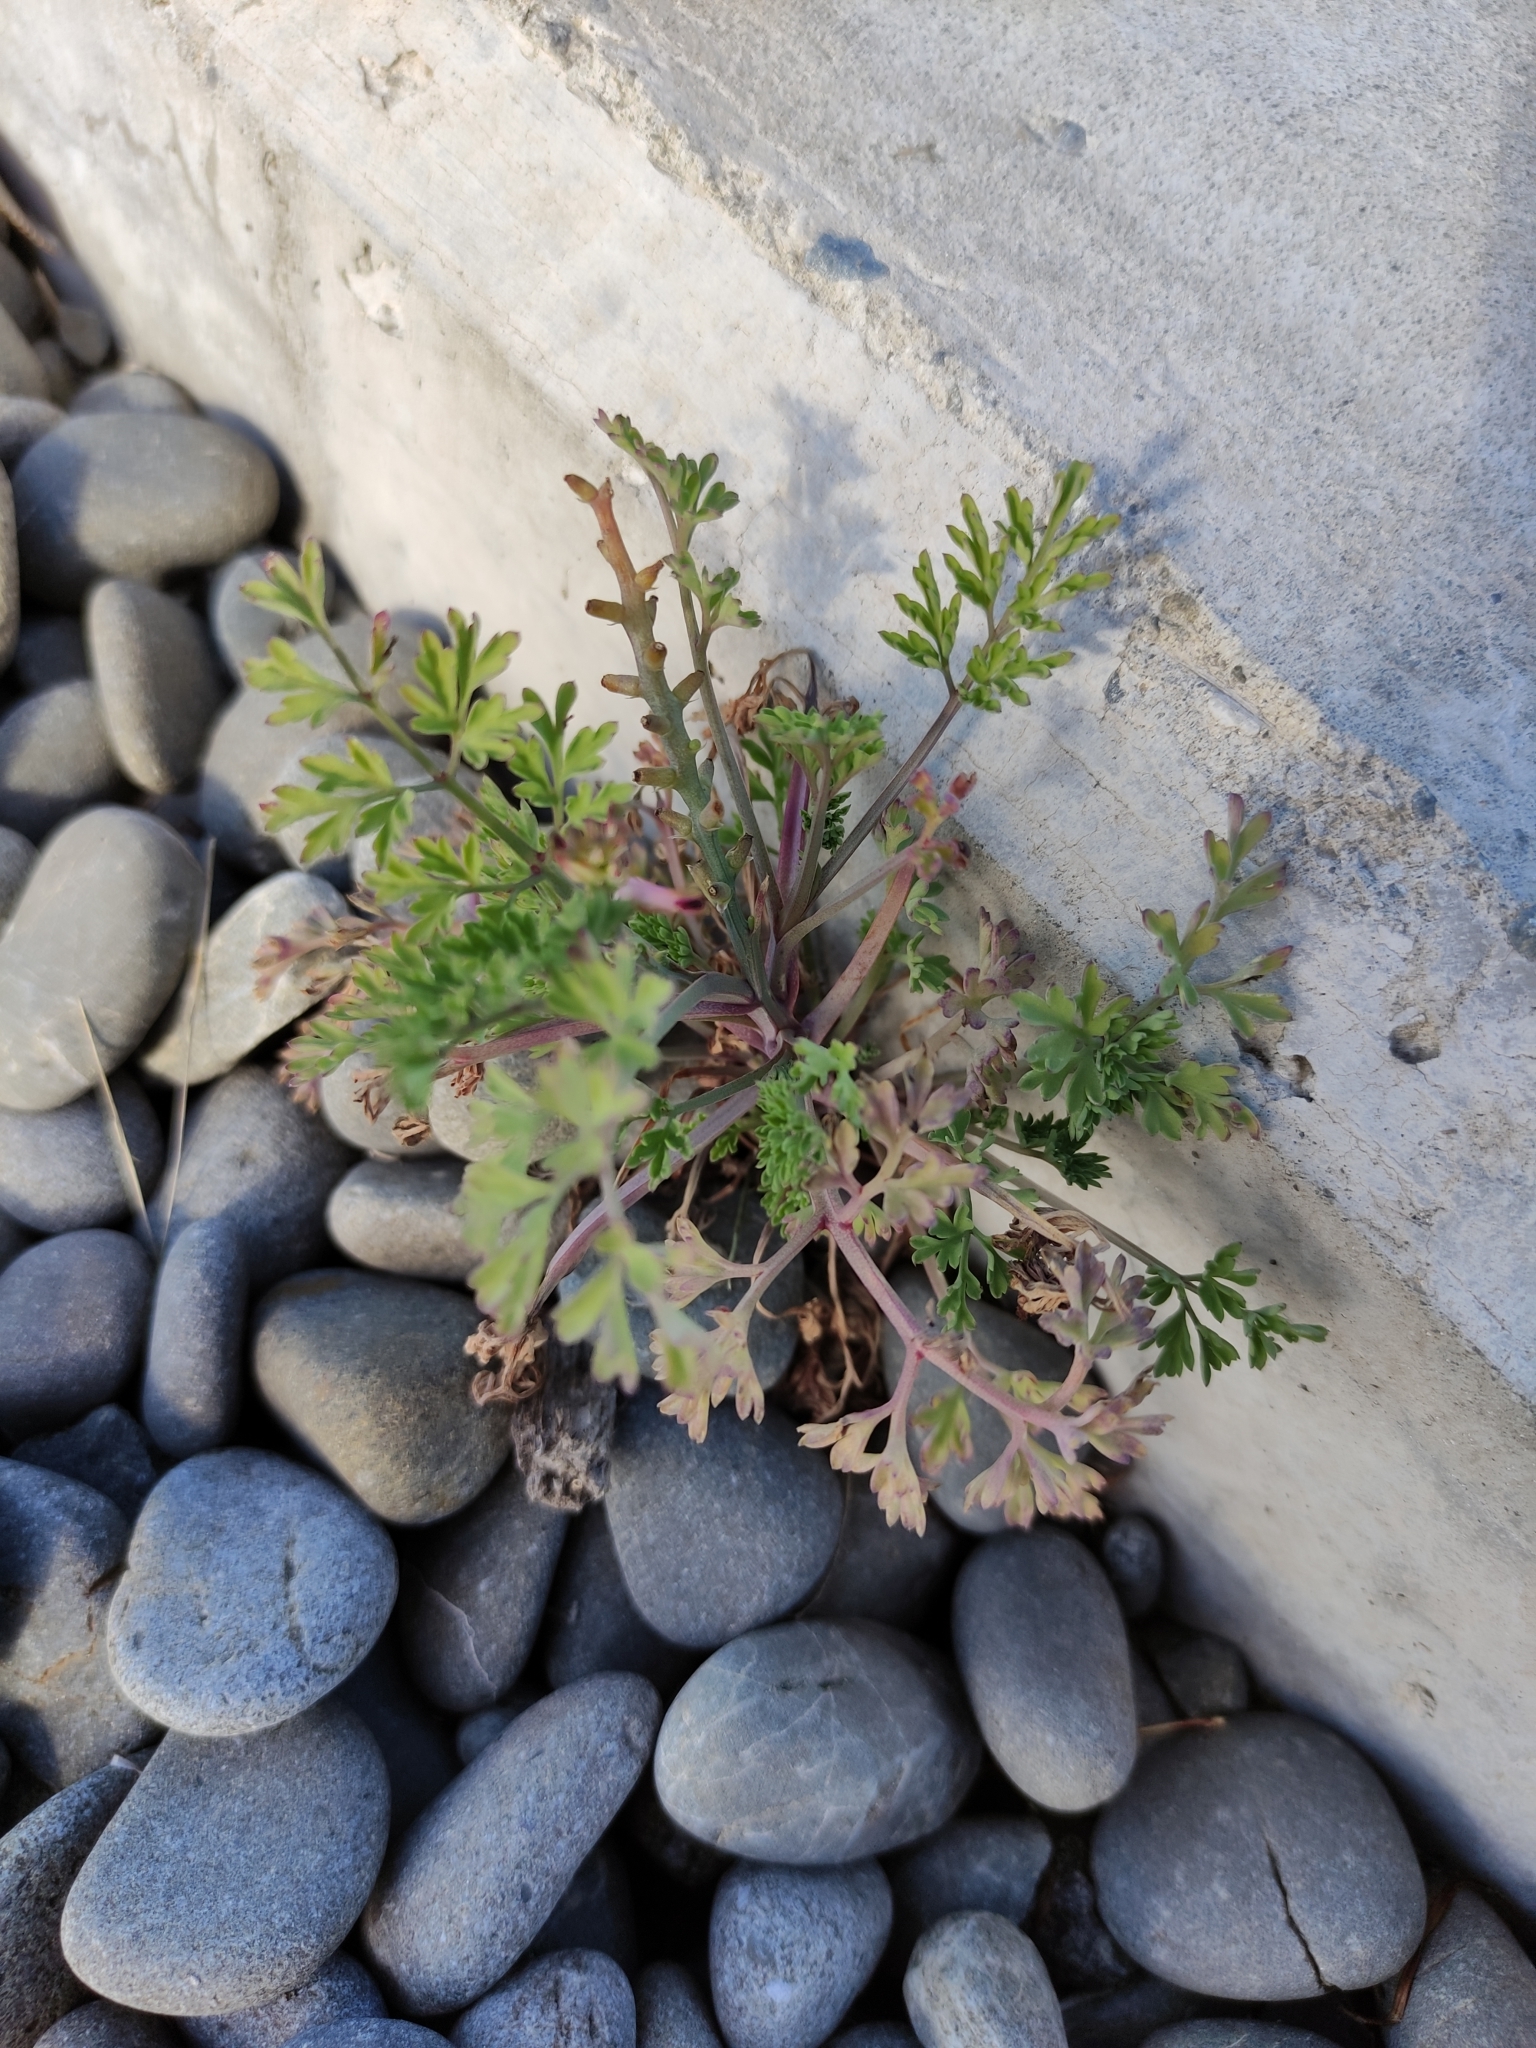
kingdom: Plantae
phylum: Tracheophyta
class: Magnoliopsida
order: Ranunculales
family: Papaveraceae
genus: Eschscholzia
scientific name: Eschscholzia californica
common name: California poppy
